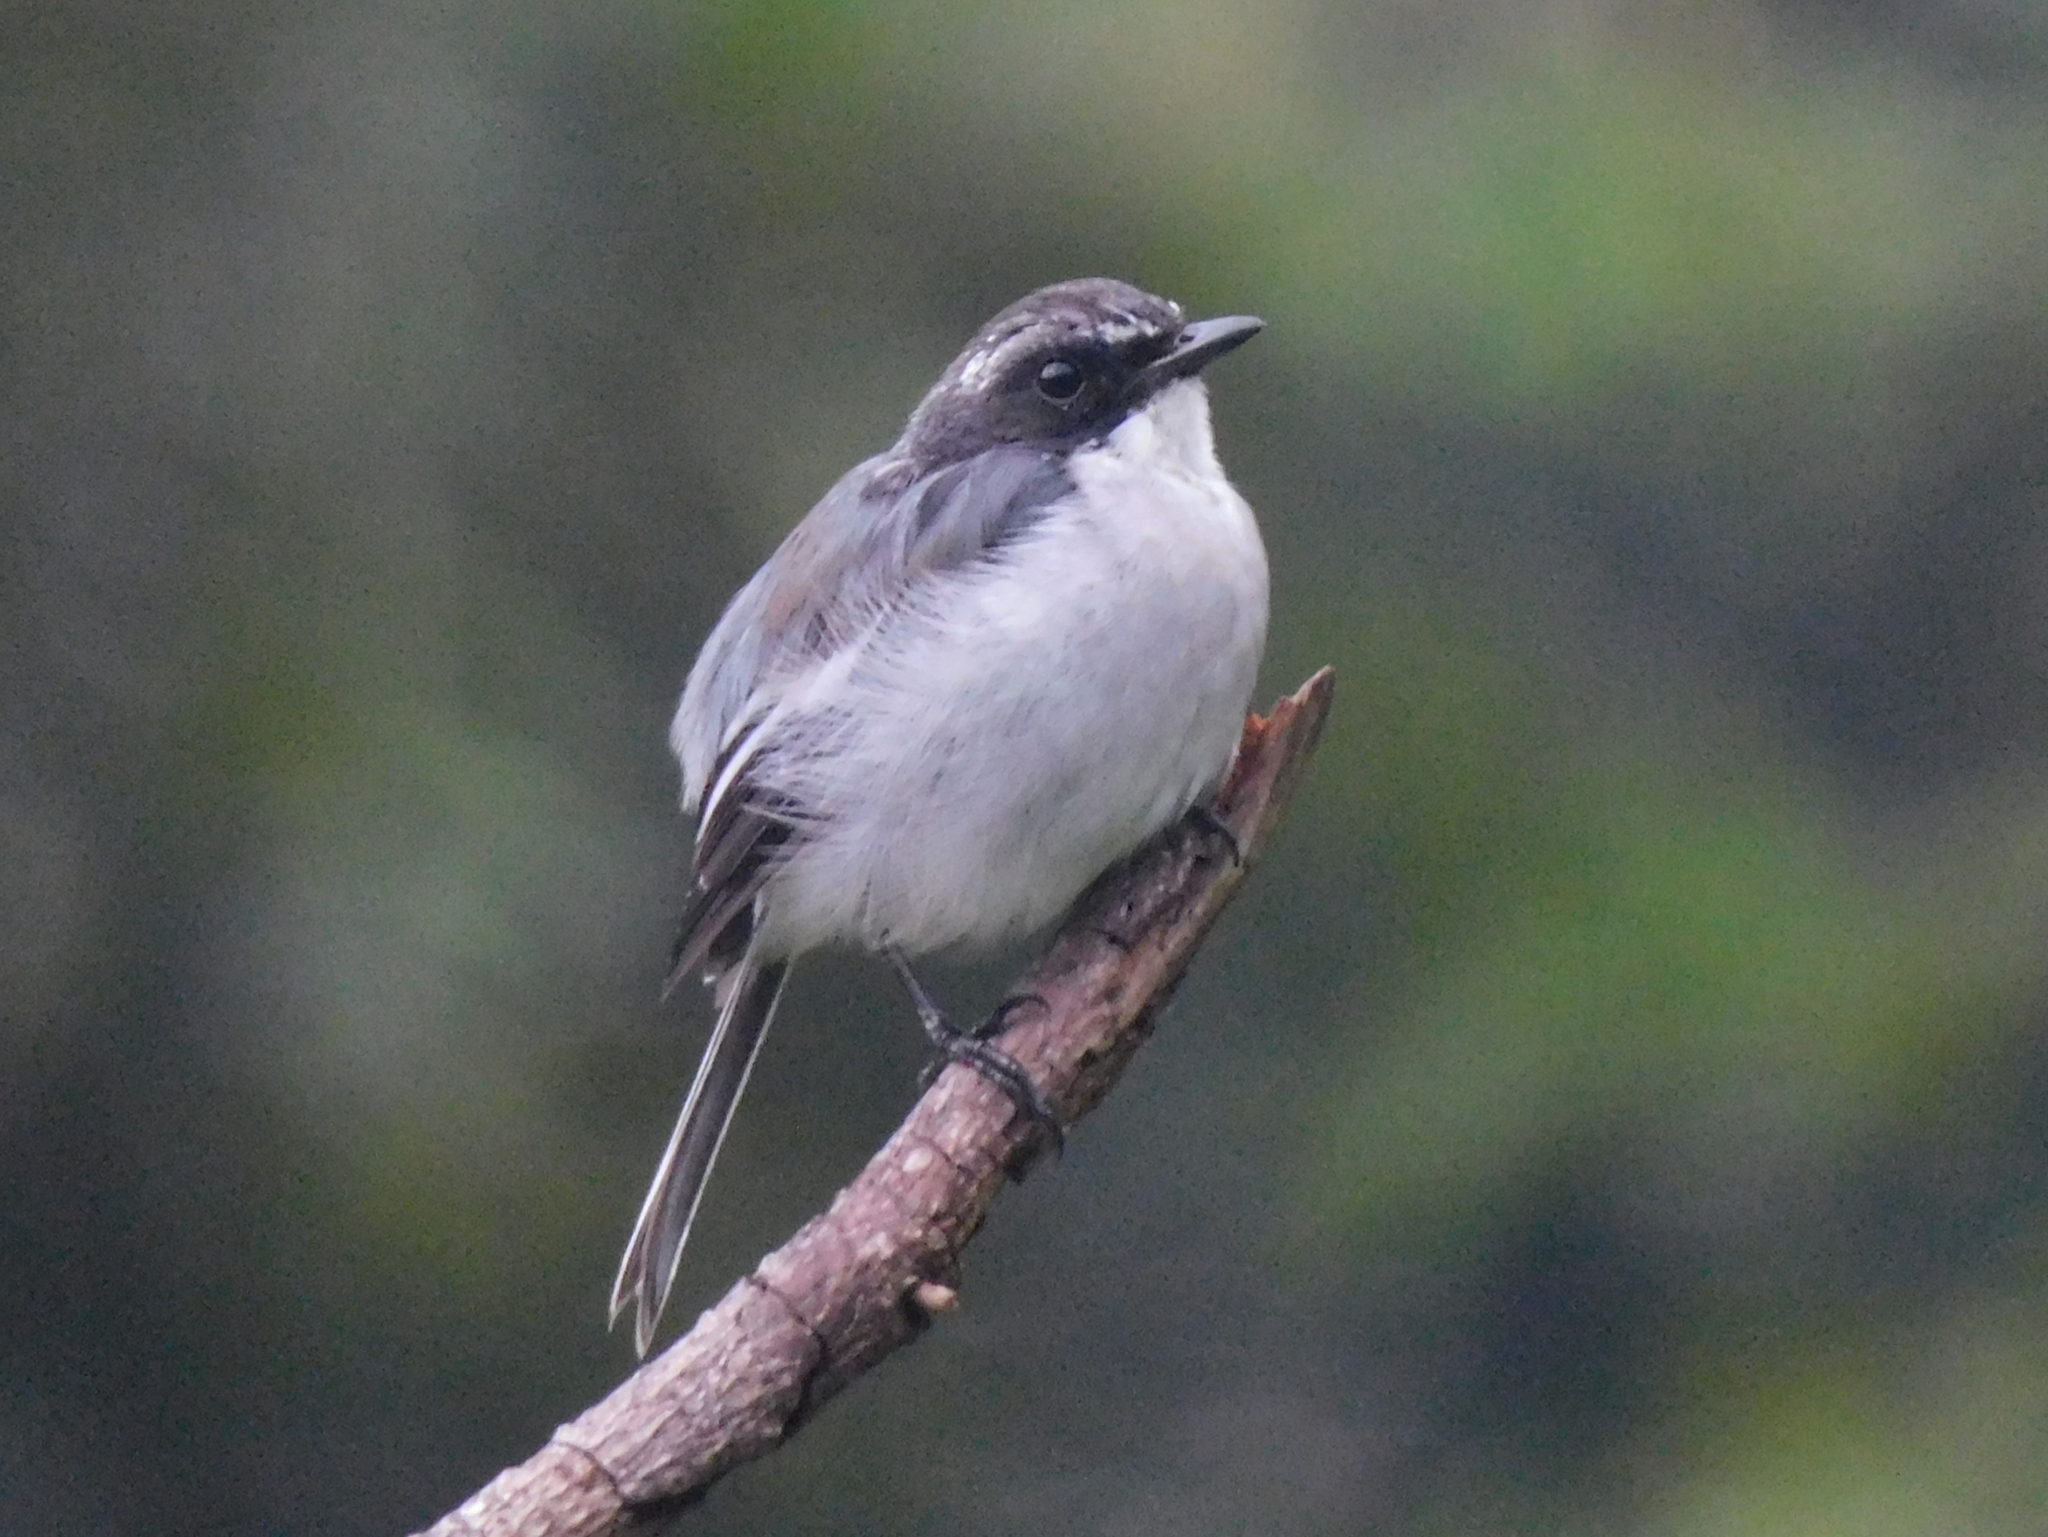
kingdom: Animalia
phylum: Chordata
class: Aves
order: Passeriformes
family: Muscicapidae
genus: Saxicola
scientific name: Saxicola ferreus
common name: Grey bush chat
